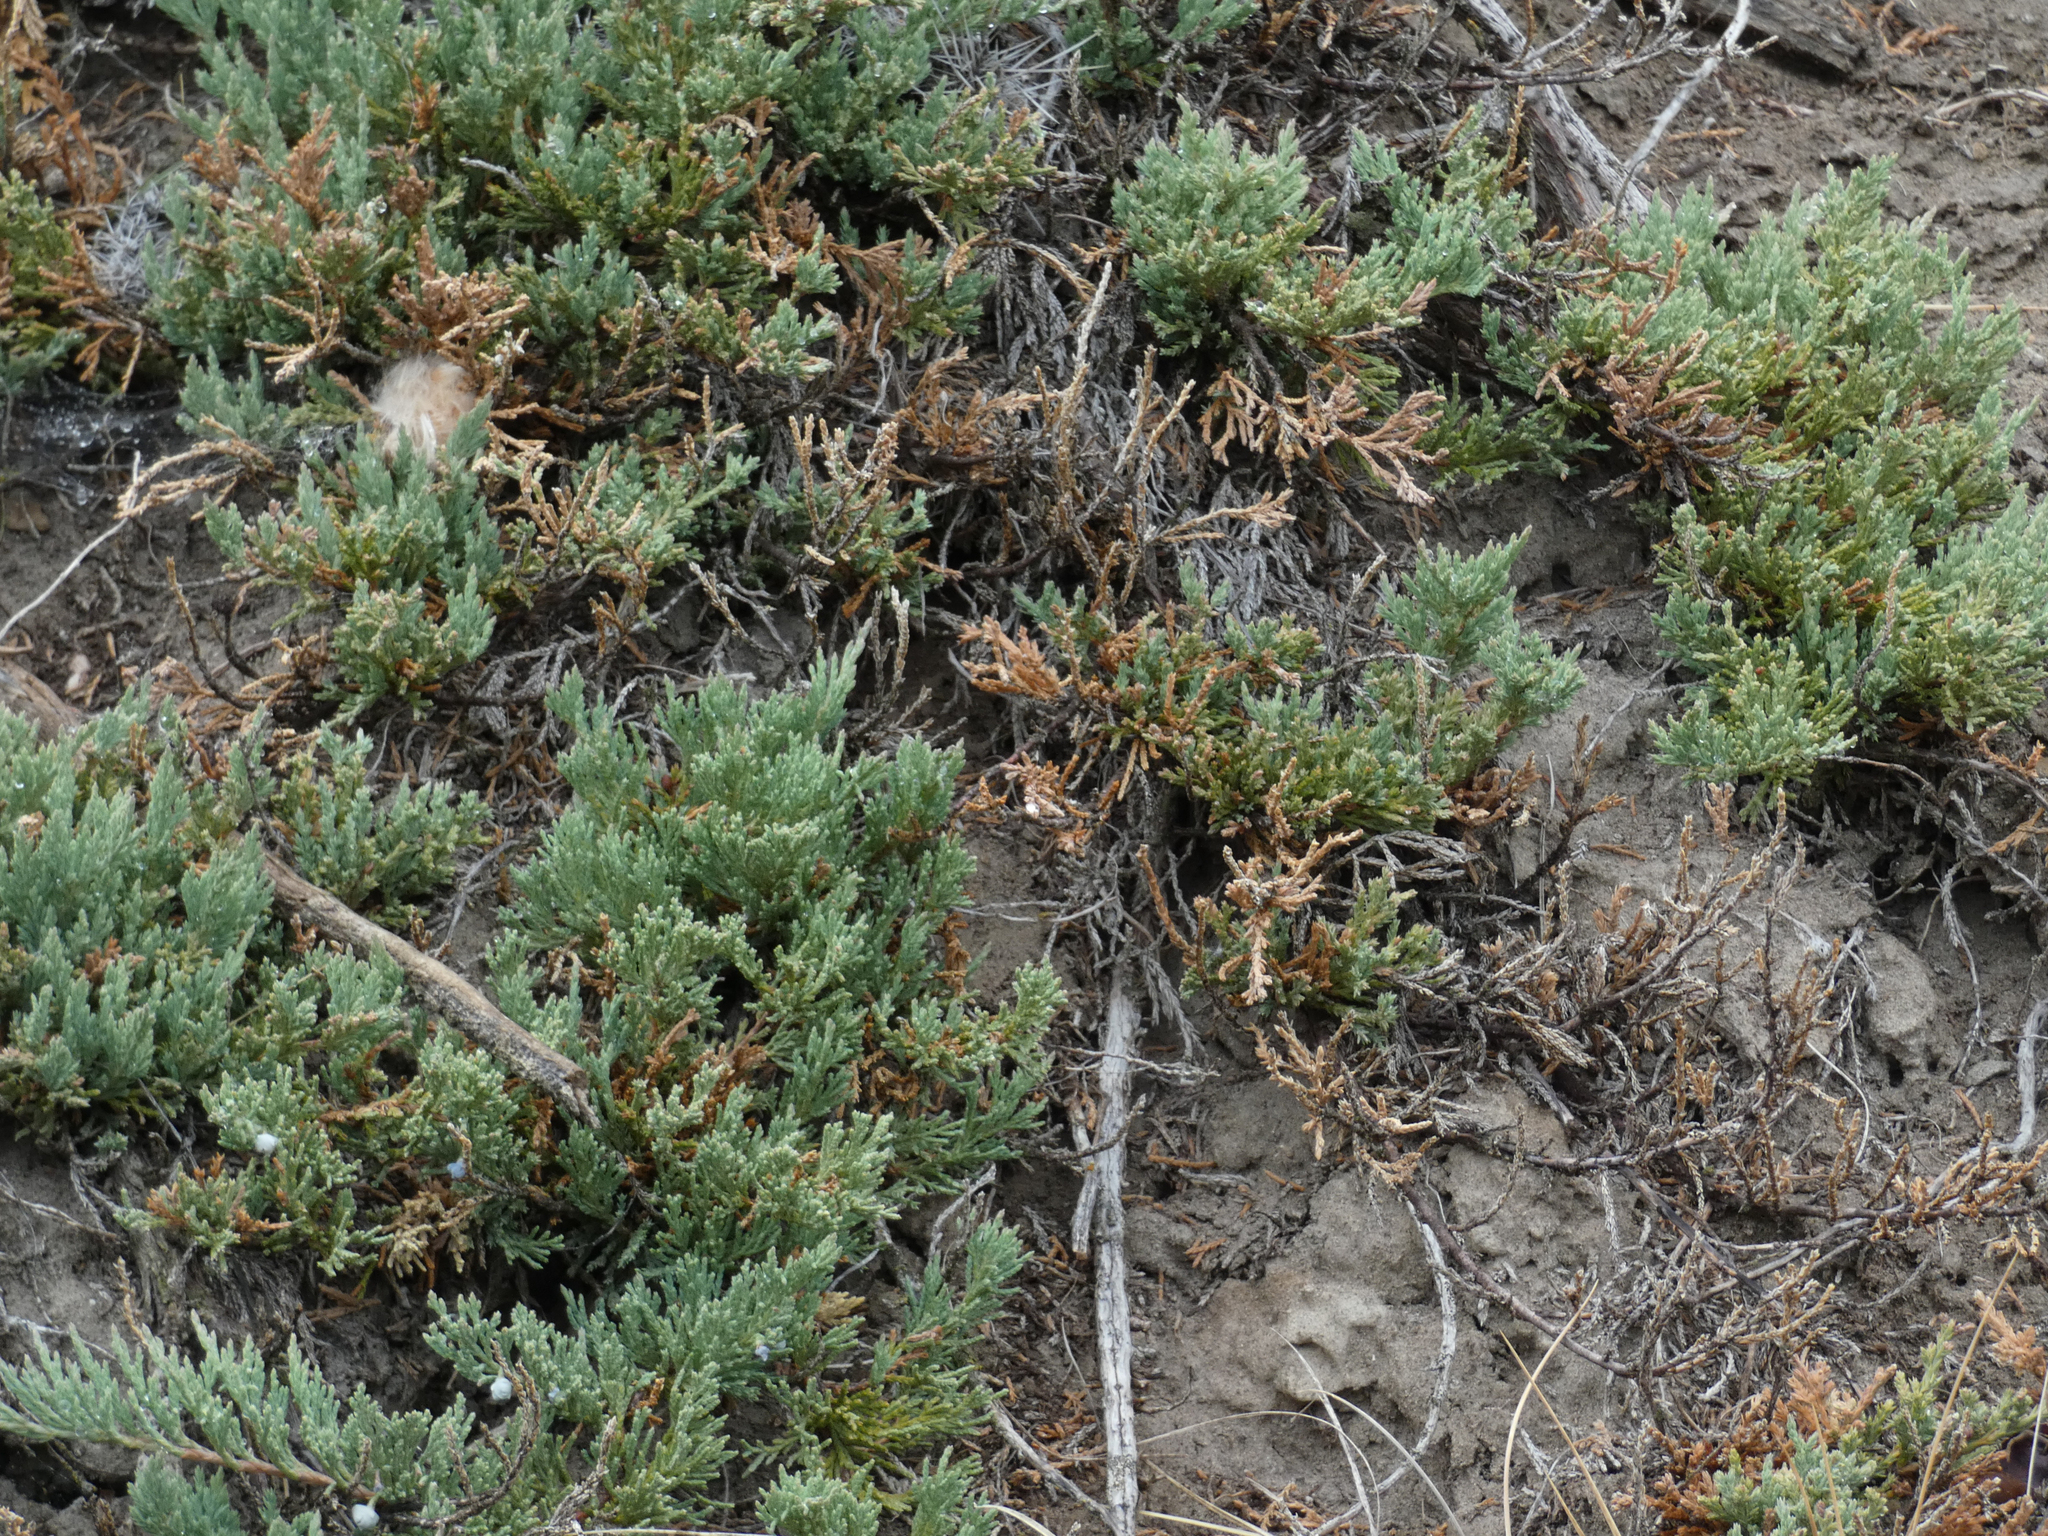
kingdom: Plantae
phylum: Tracheophyta
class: Pinopsida
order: Pinales
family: Cupressaceae
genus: Juniperus
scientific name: Juniperus horizontalis
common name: Creeping juniper
